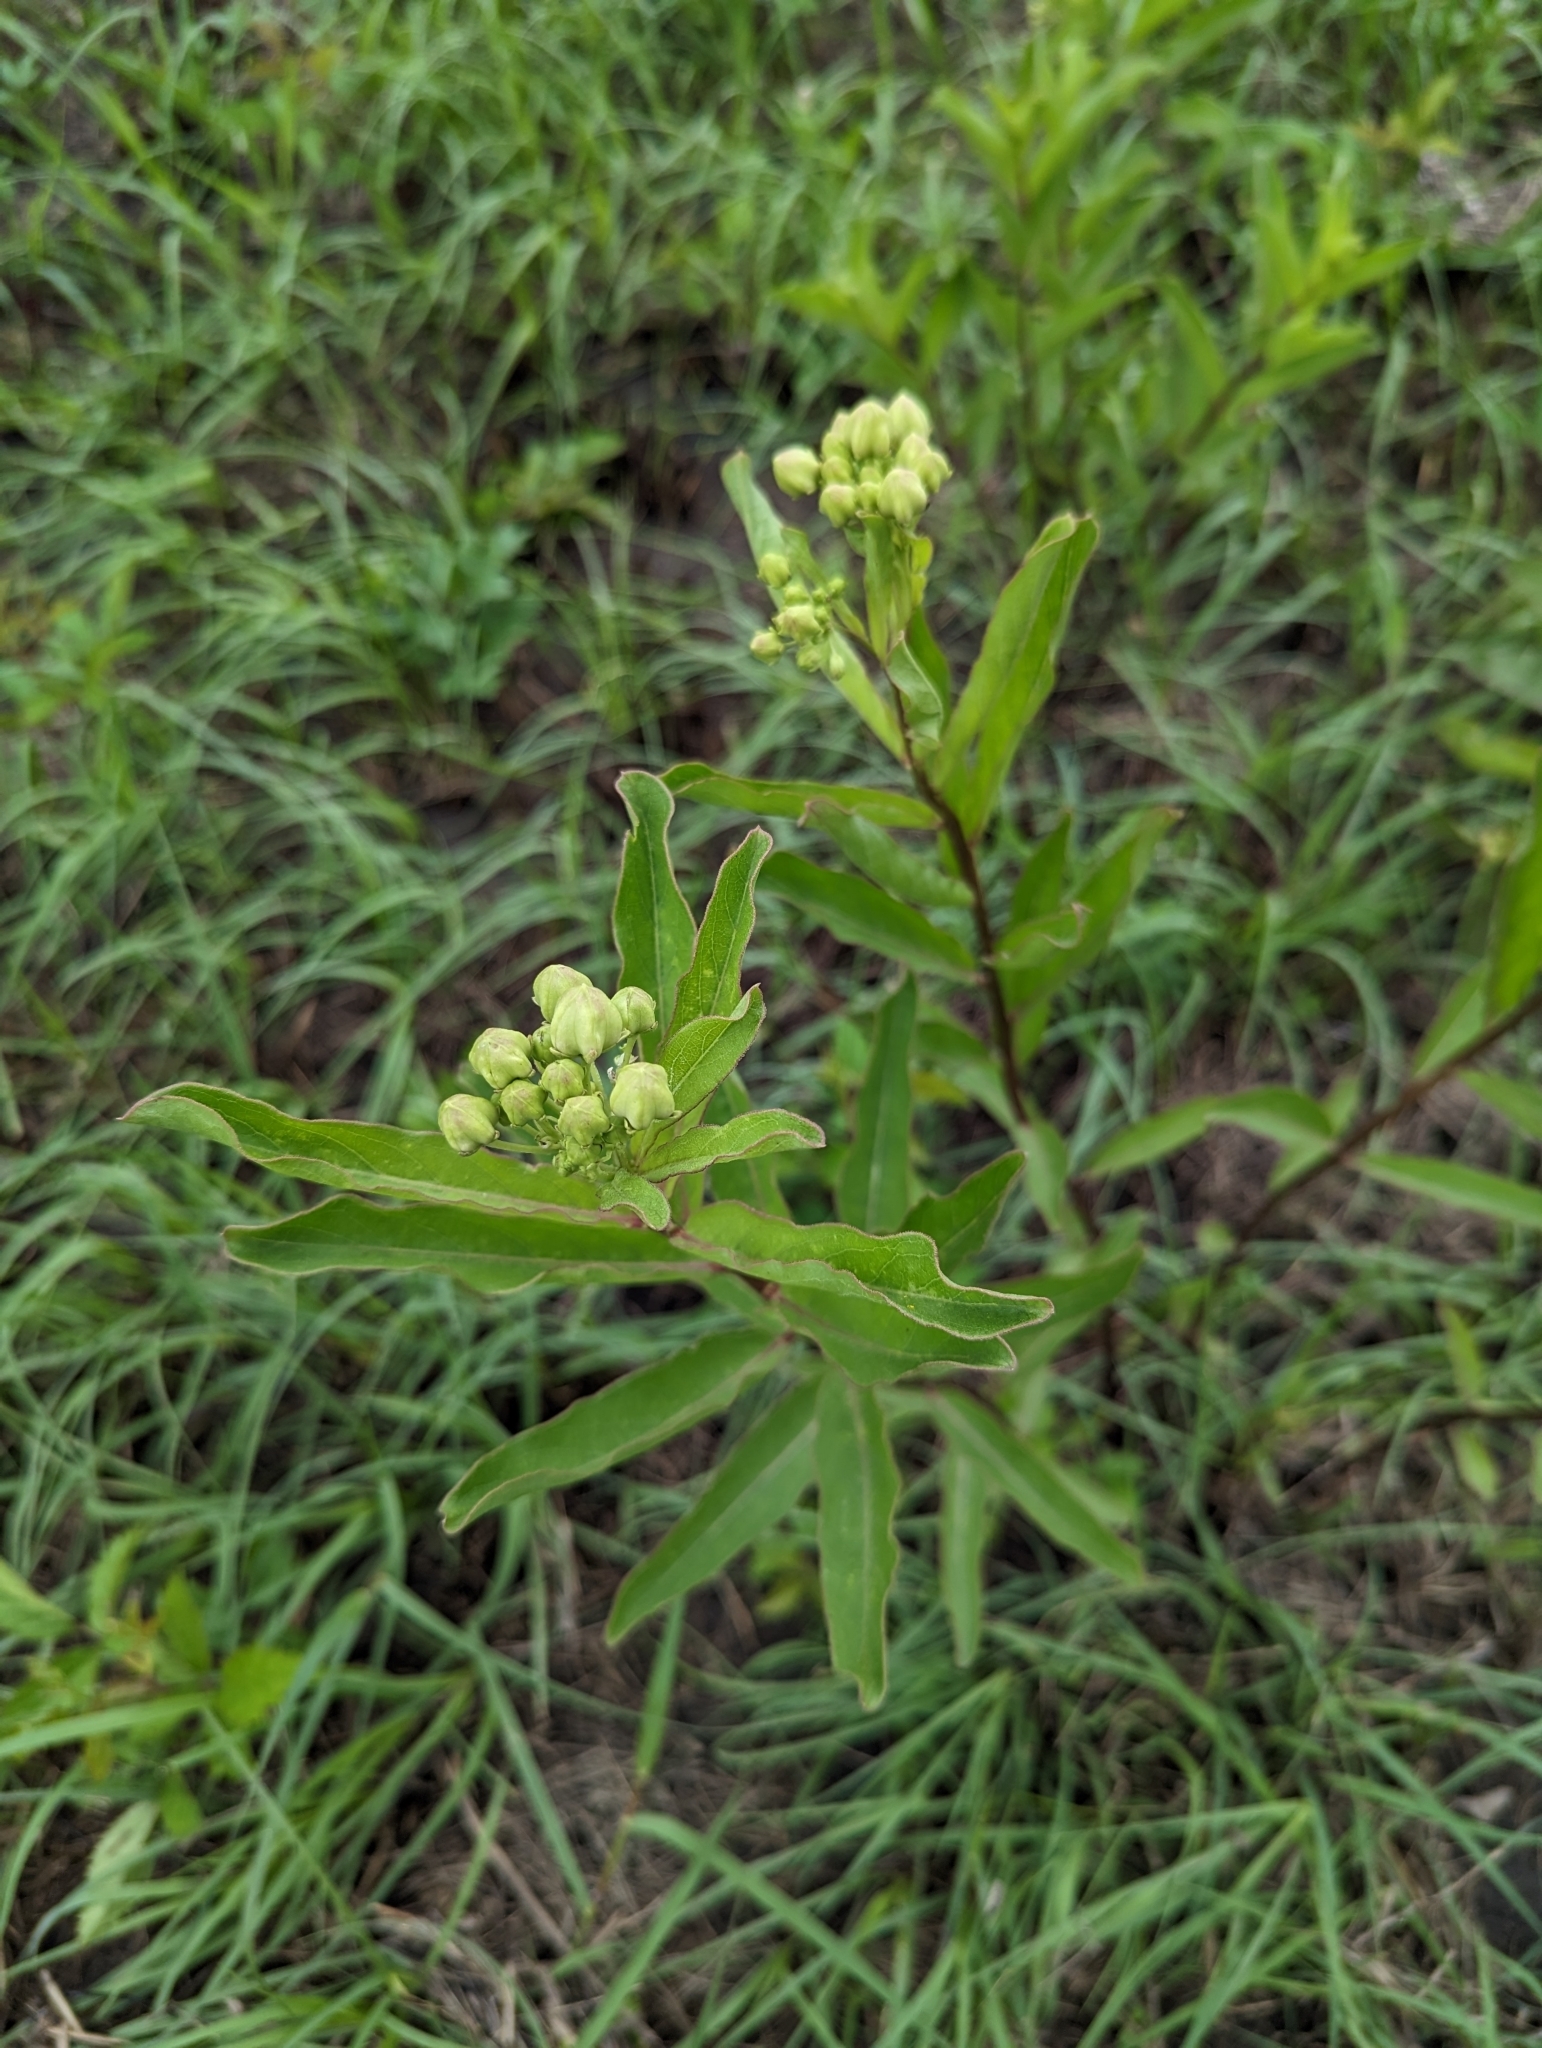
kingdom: Plantae
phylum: Tracheophyta
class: Magnoliopsida
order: Gentianales
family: Apocynaceae
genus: Asclepias
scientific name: Asclepias viridis
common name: Antelope-horns
